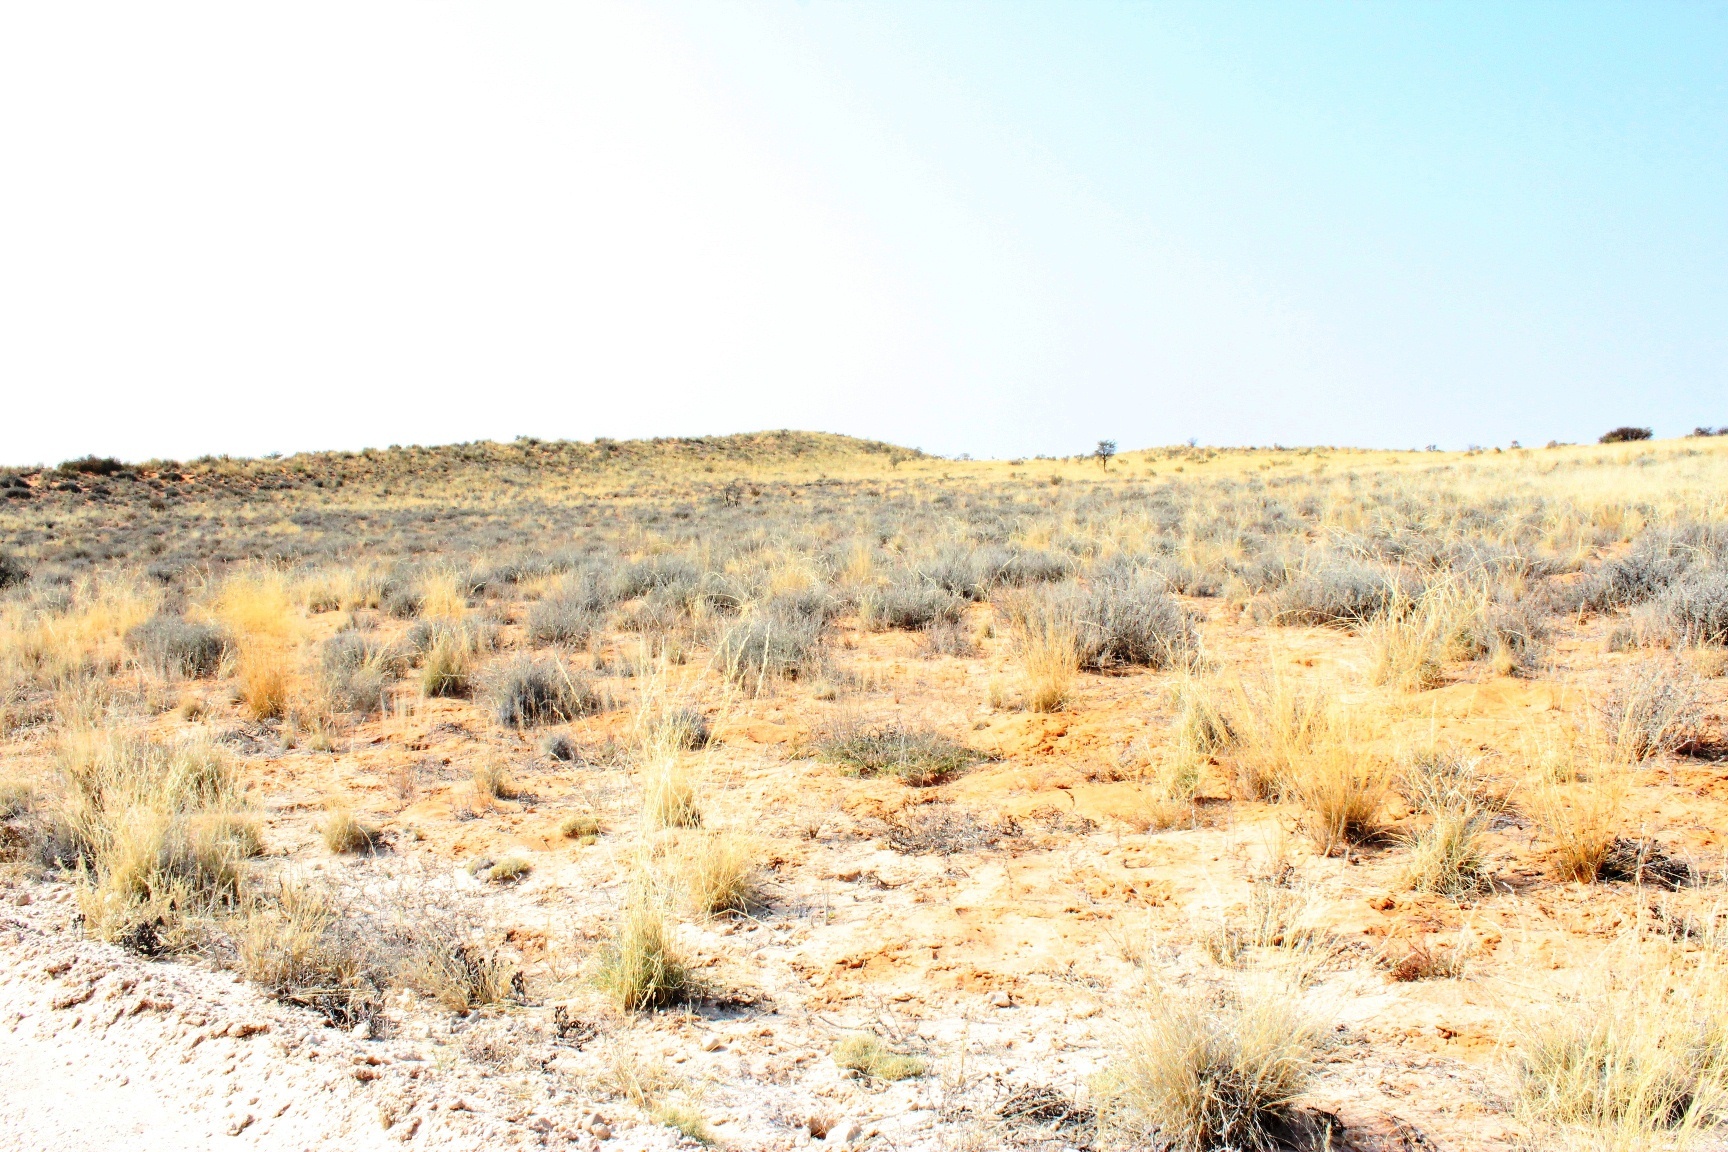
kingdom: Plantae
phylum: Tracheophyta
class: Magnoliopsida
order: Lamiales
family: Acanthaceae
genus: Pogonospermum
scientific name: Pogonospermum
